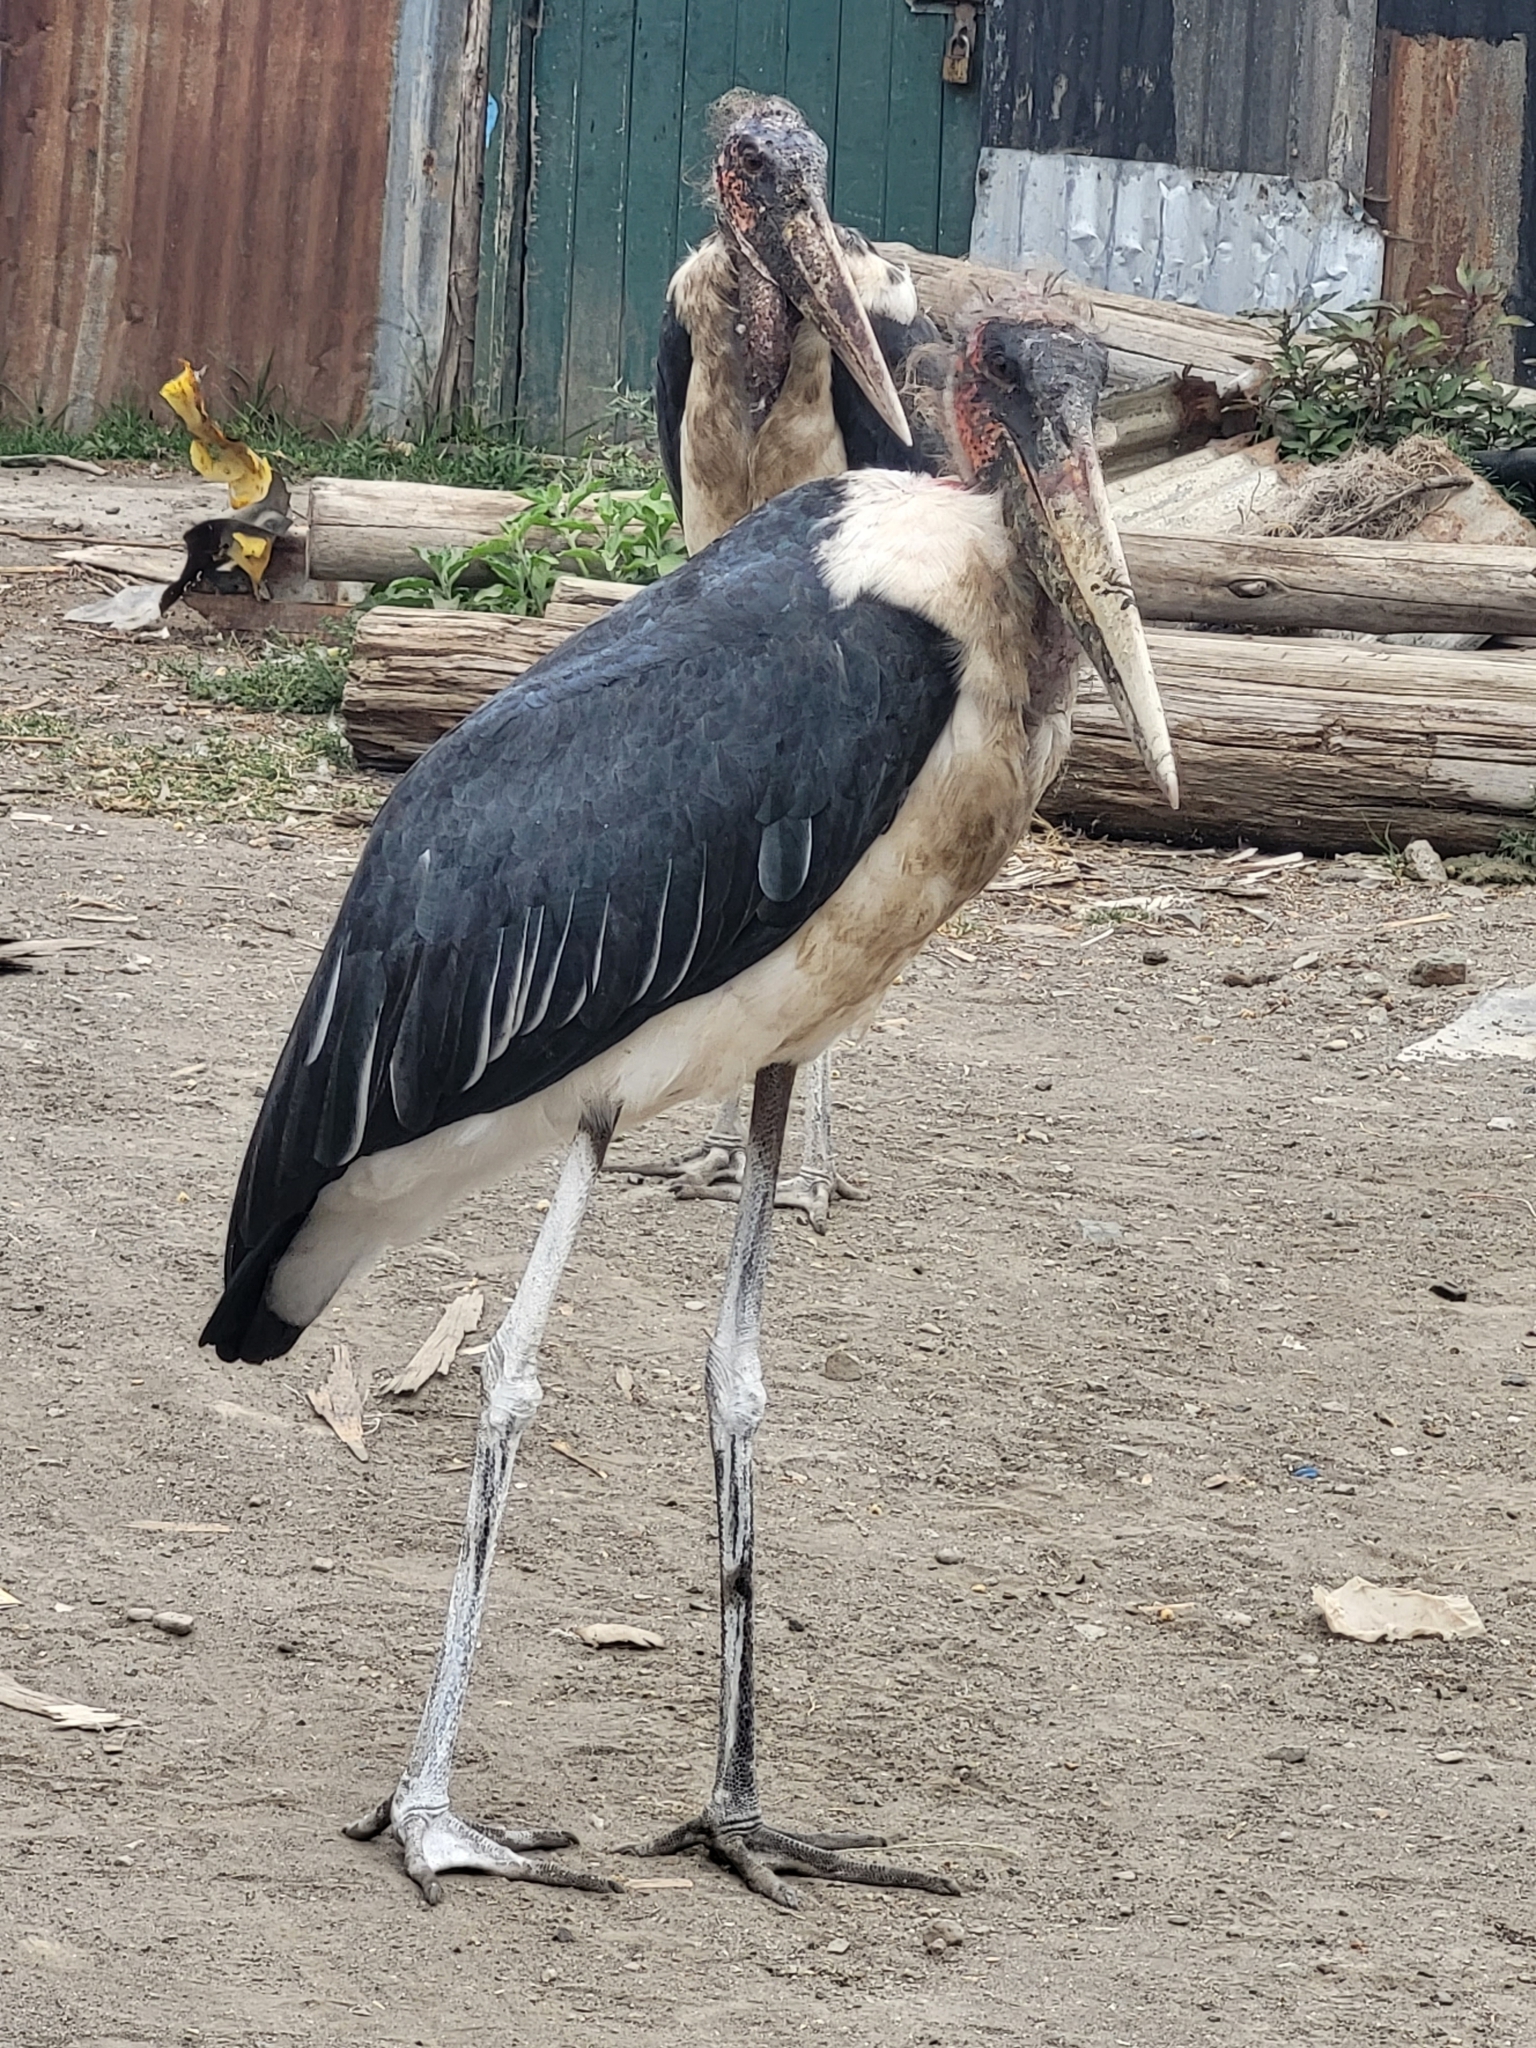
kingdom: Animalia
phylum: Chordata
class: Aves
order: Ciconiiformes
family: Ciconiidae
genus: Leptoptilos
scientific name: Leptoptilos crumenifer
